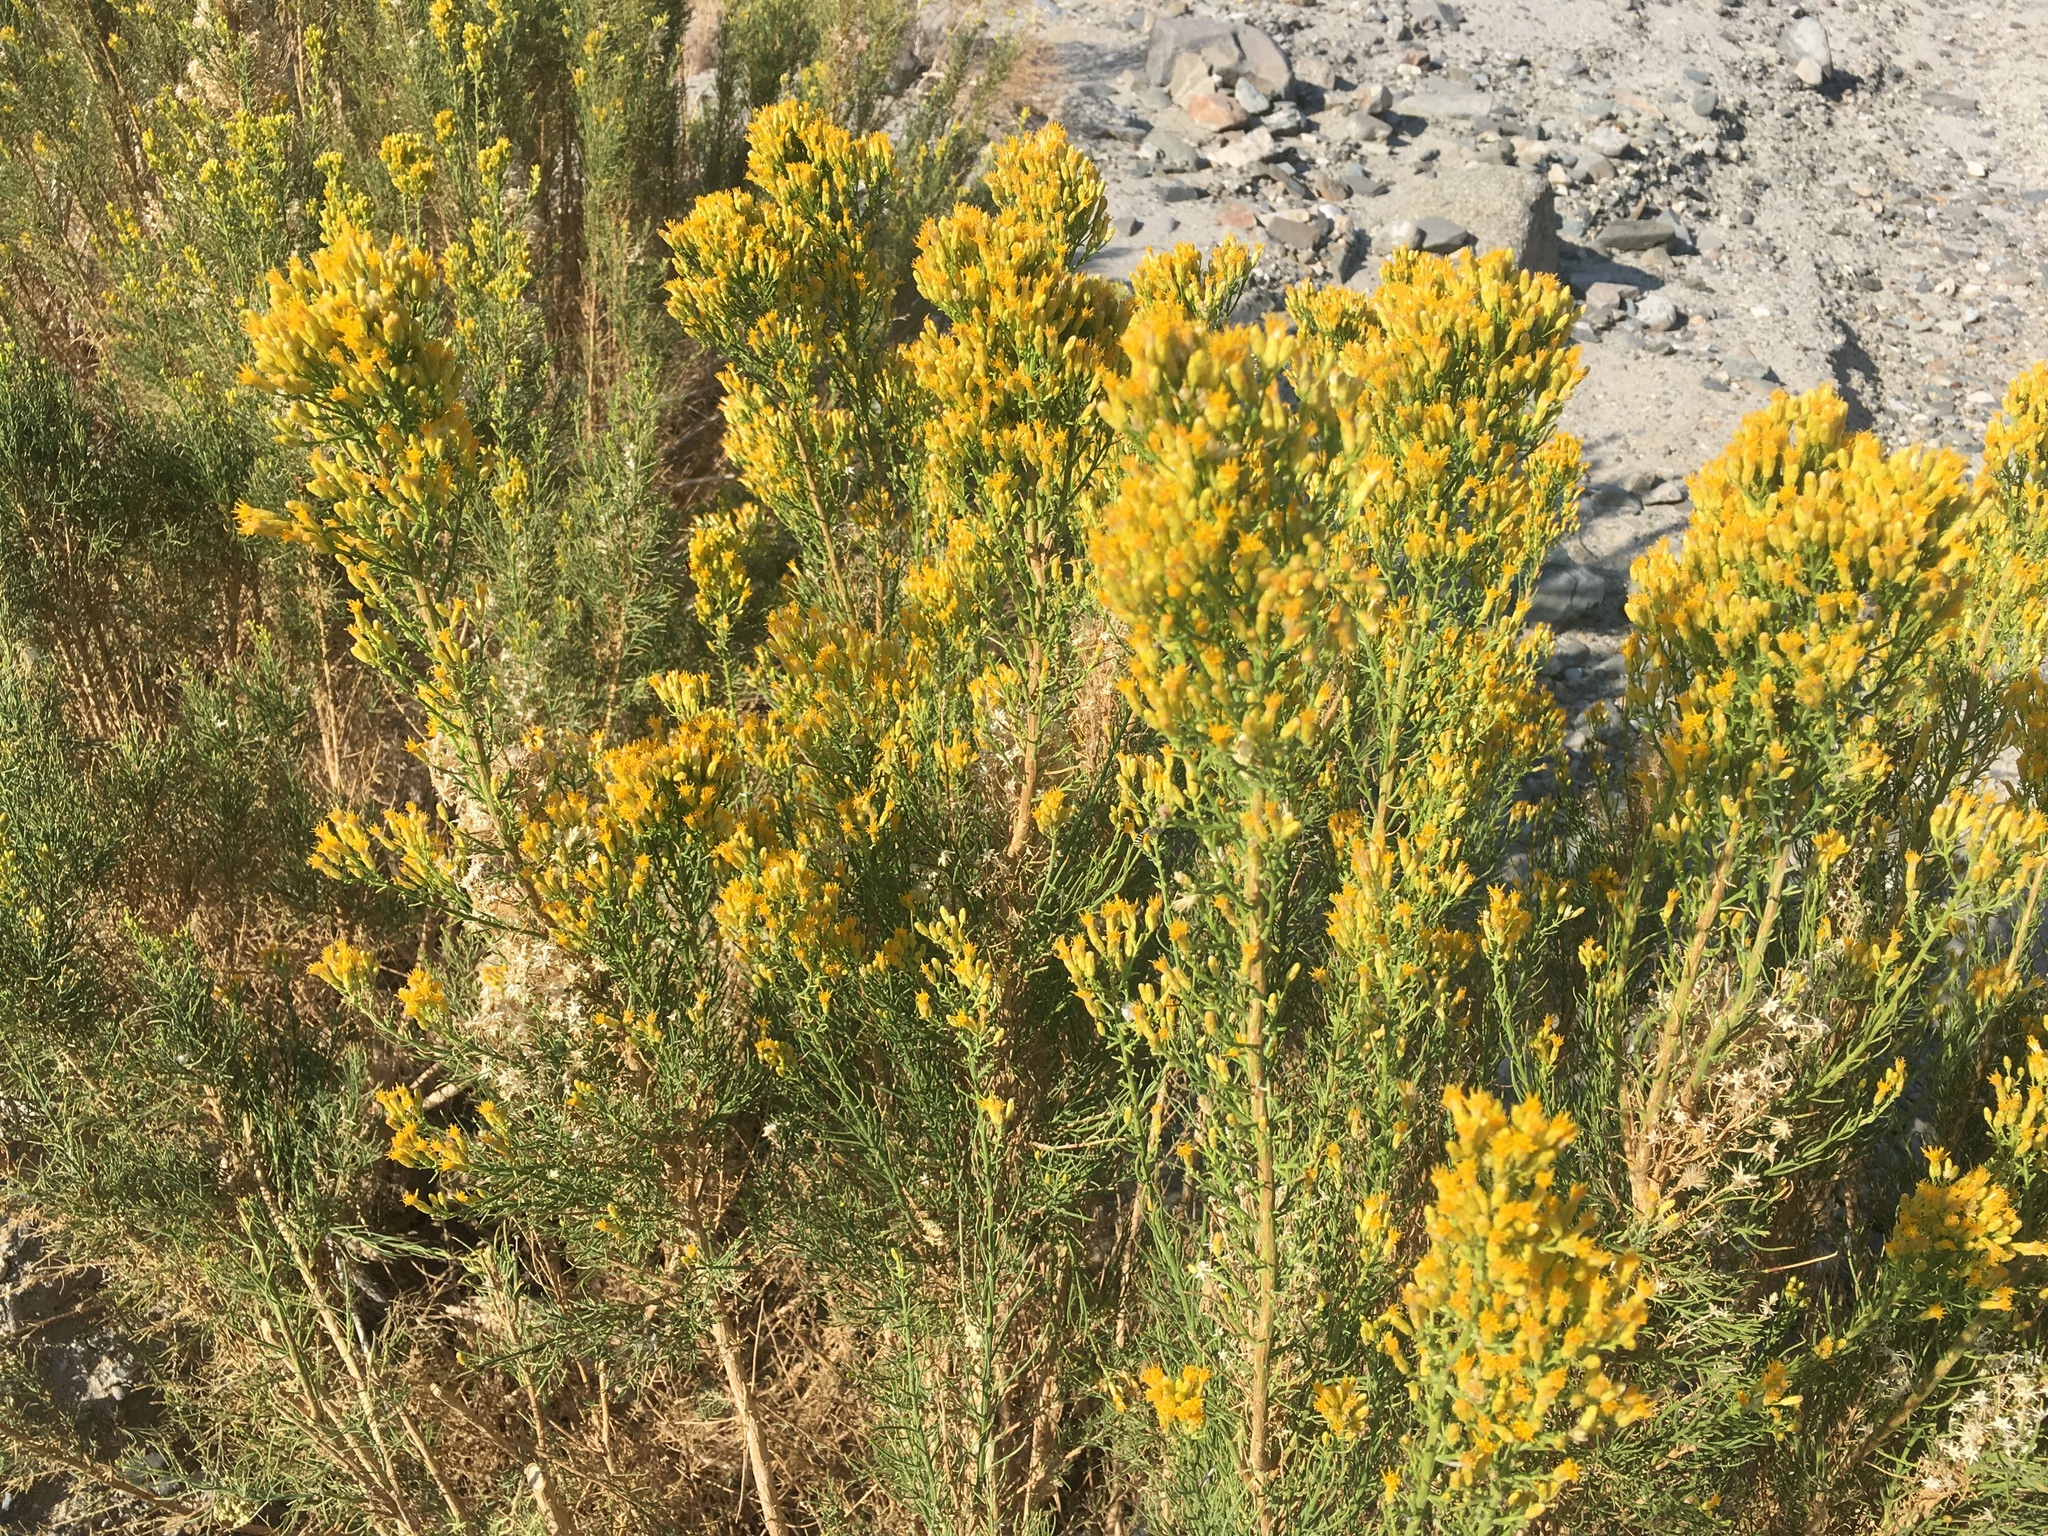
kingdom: Plantae
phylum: Tracheophyta
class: Magnoliopsida
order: Asterales
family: Asteraceae
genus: Ericameria
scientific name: Ericameria paniculata
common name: Punctate rabbitbrush
